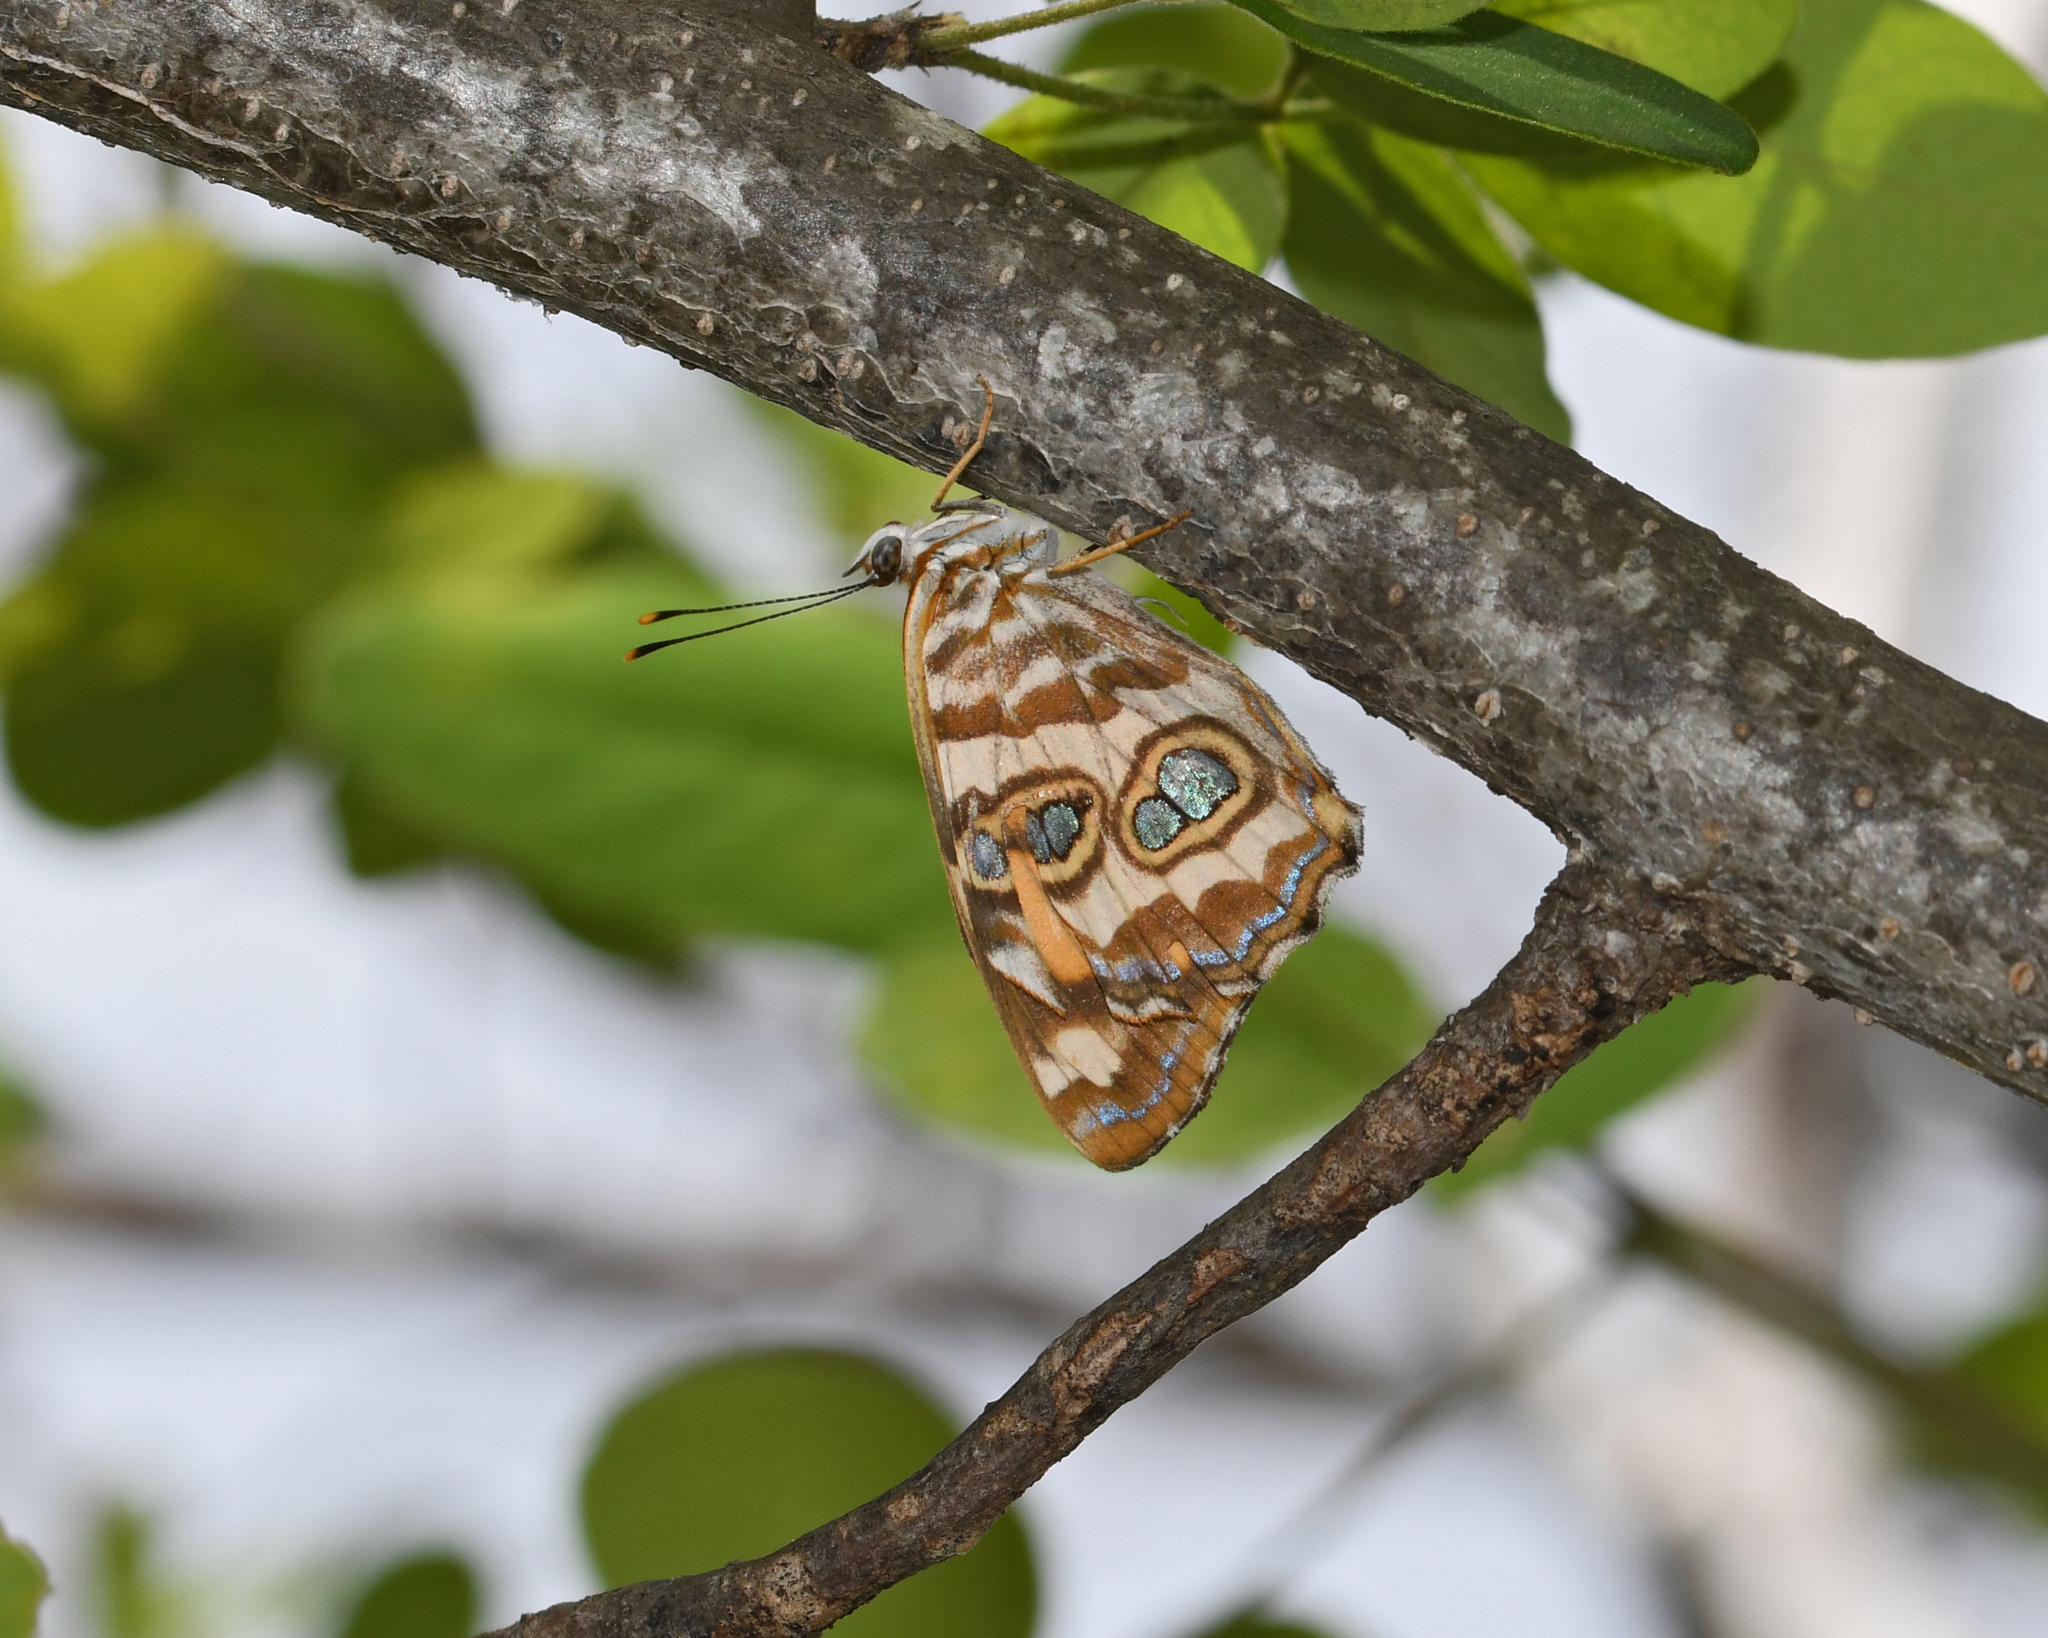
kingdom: Animalia
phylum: Arthropoda
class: Insecta
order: Lepidoptera
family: Nymphalidae
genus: Lucinia
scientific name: Lucinia sida
